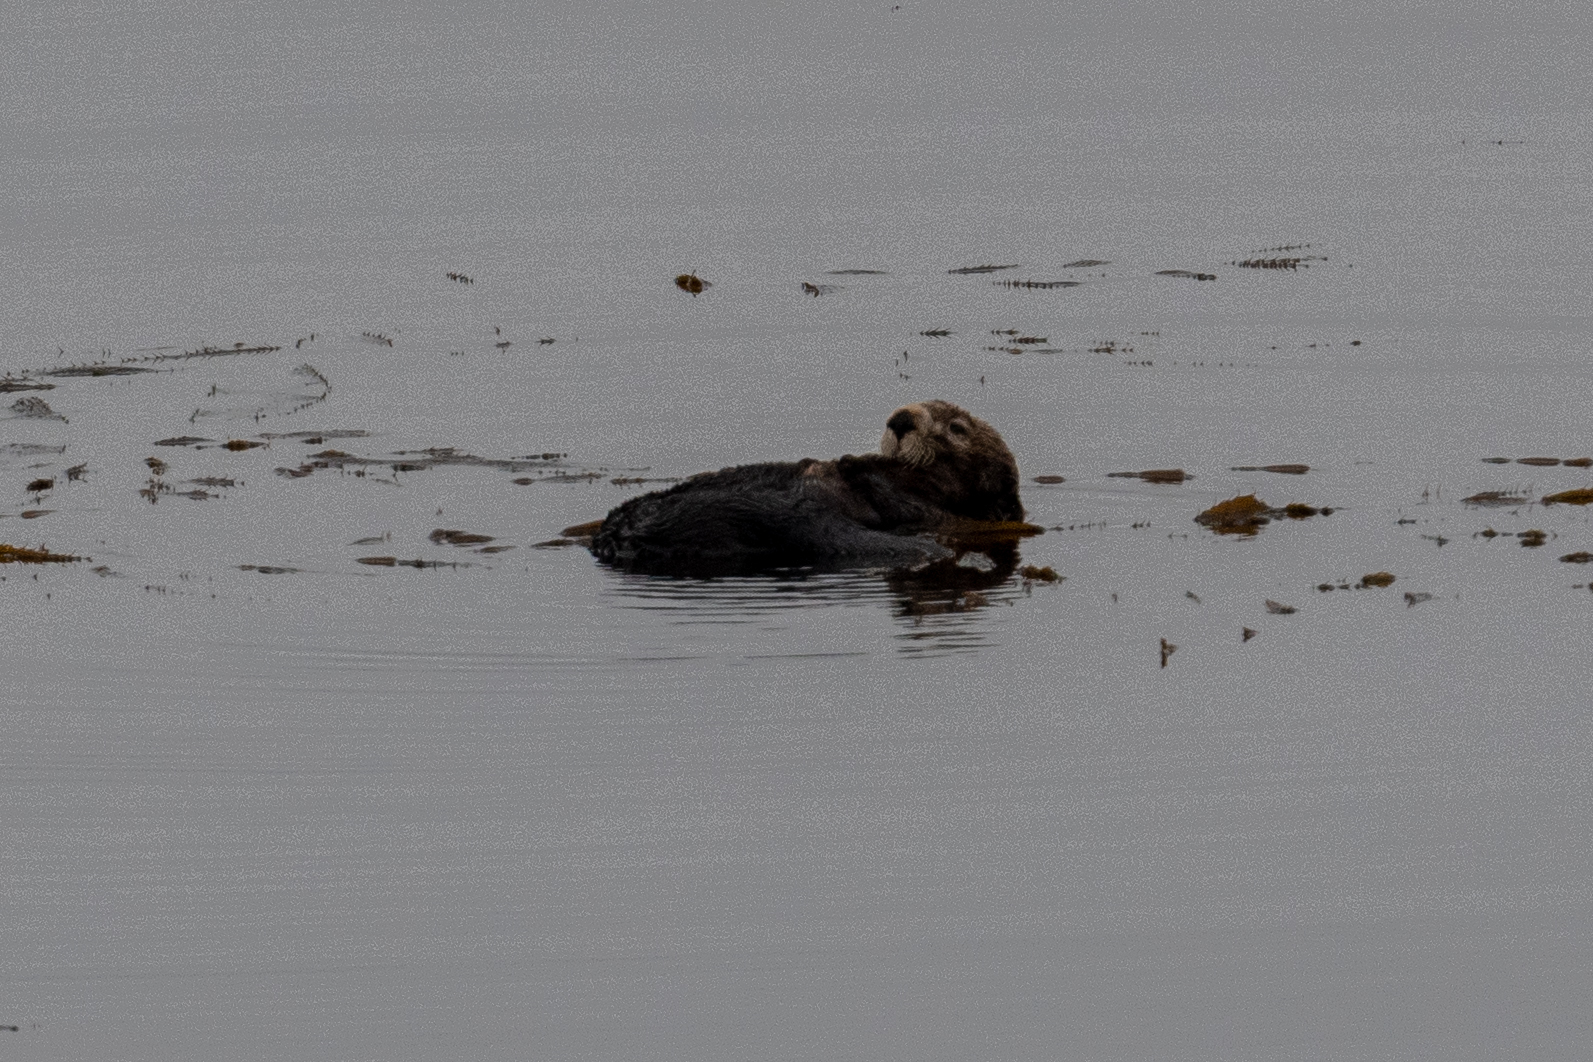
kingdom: Animalia
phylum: Chordata
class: Mammalia
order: Carnivora
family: Mustelidae
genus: Enhydra
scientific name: Enhydra lutris
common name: Sea otter
